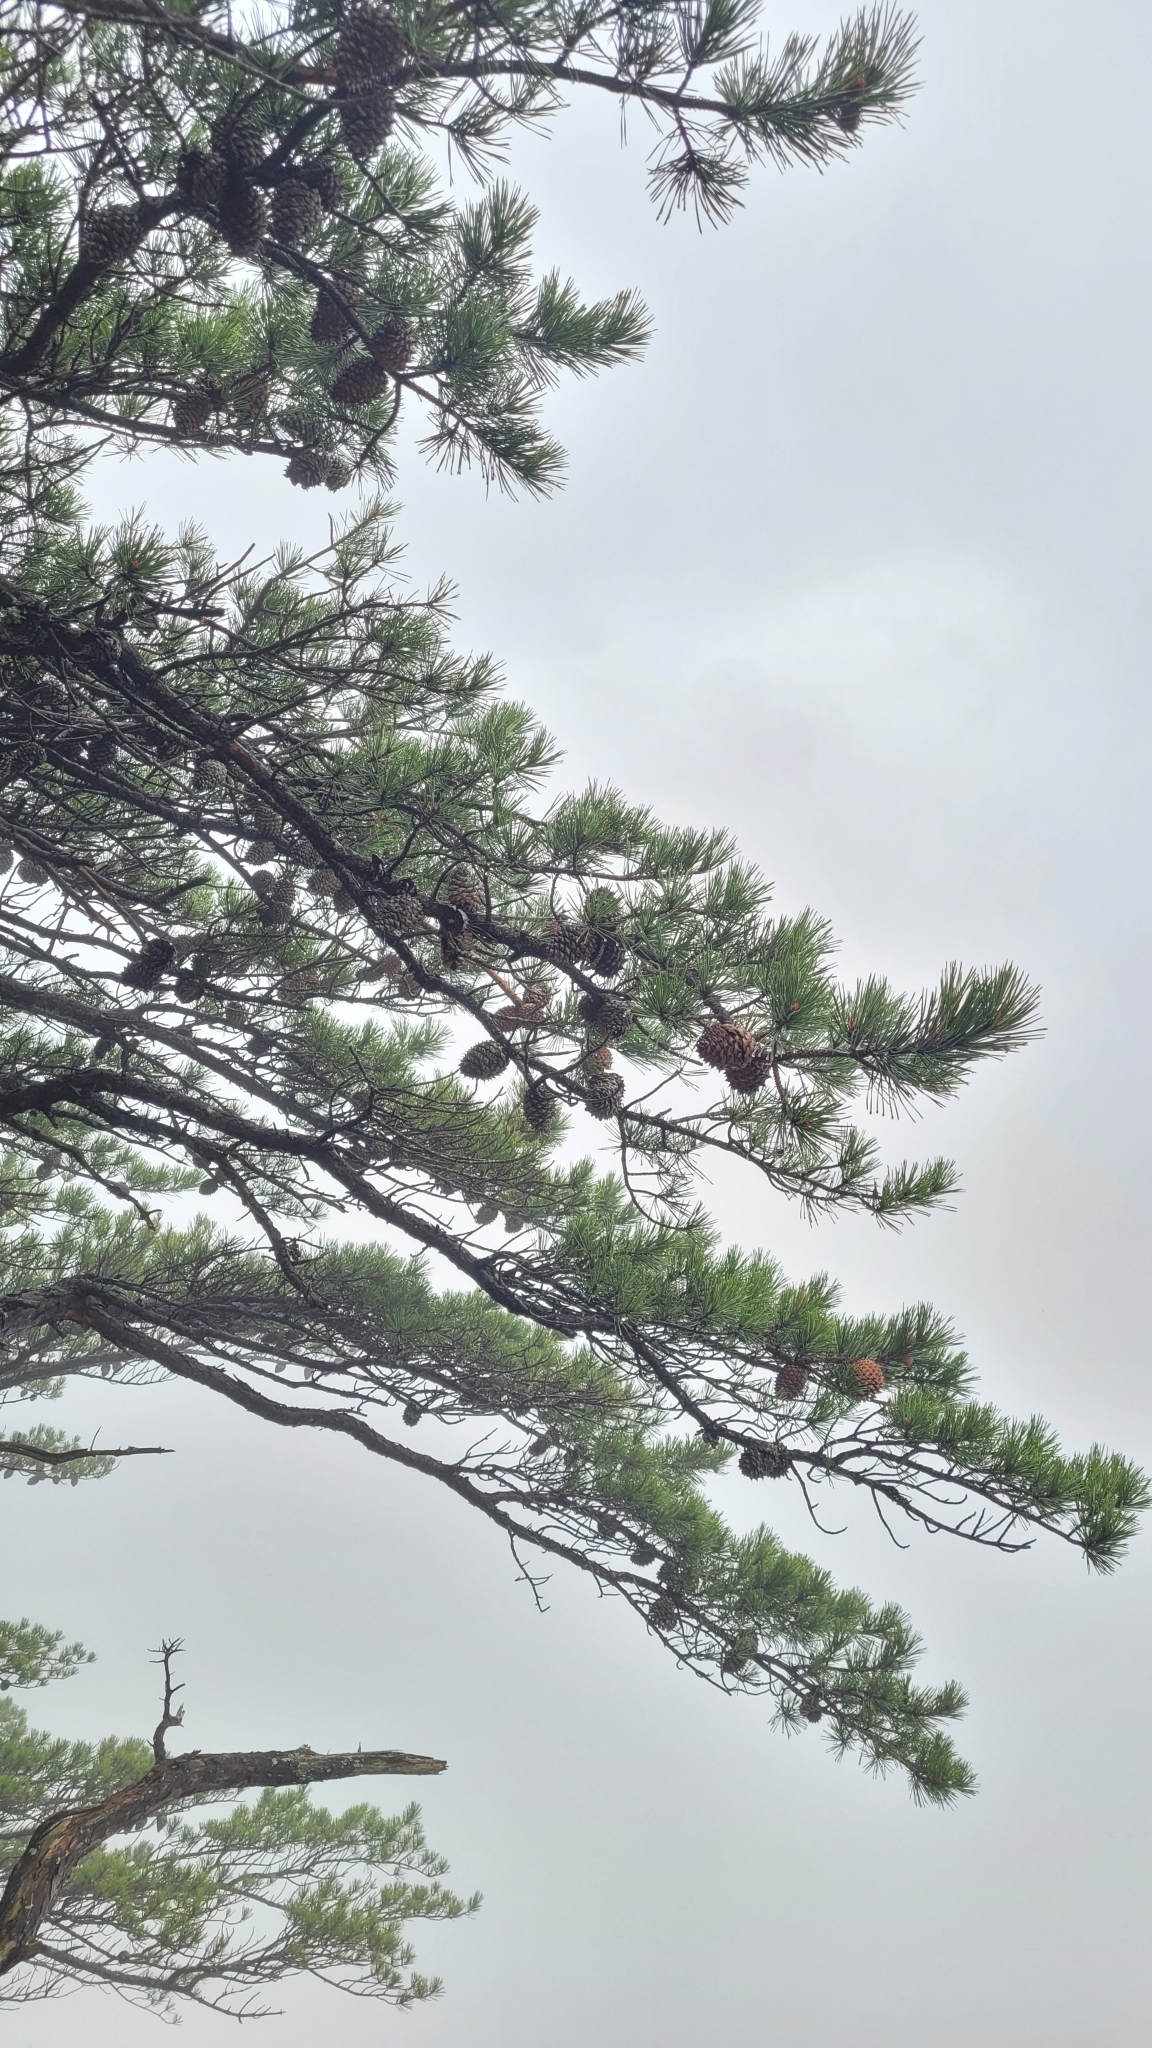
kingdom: Plantae
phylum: Tracheophyta
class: Pinopsida
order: Pinales
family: Pinaceae
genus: Pinus
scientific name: Pinus pungens
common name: Hickory pine
